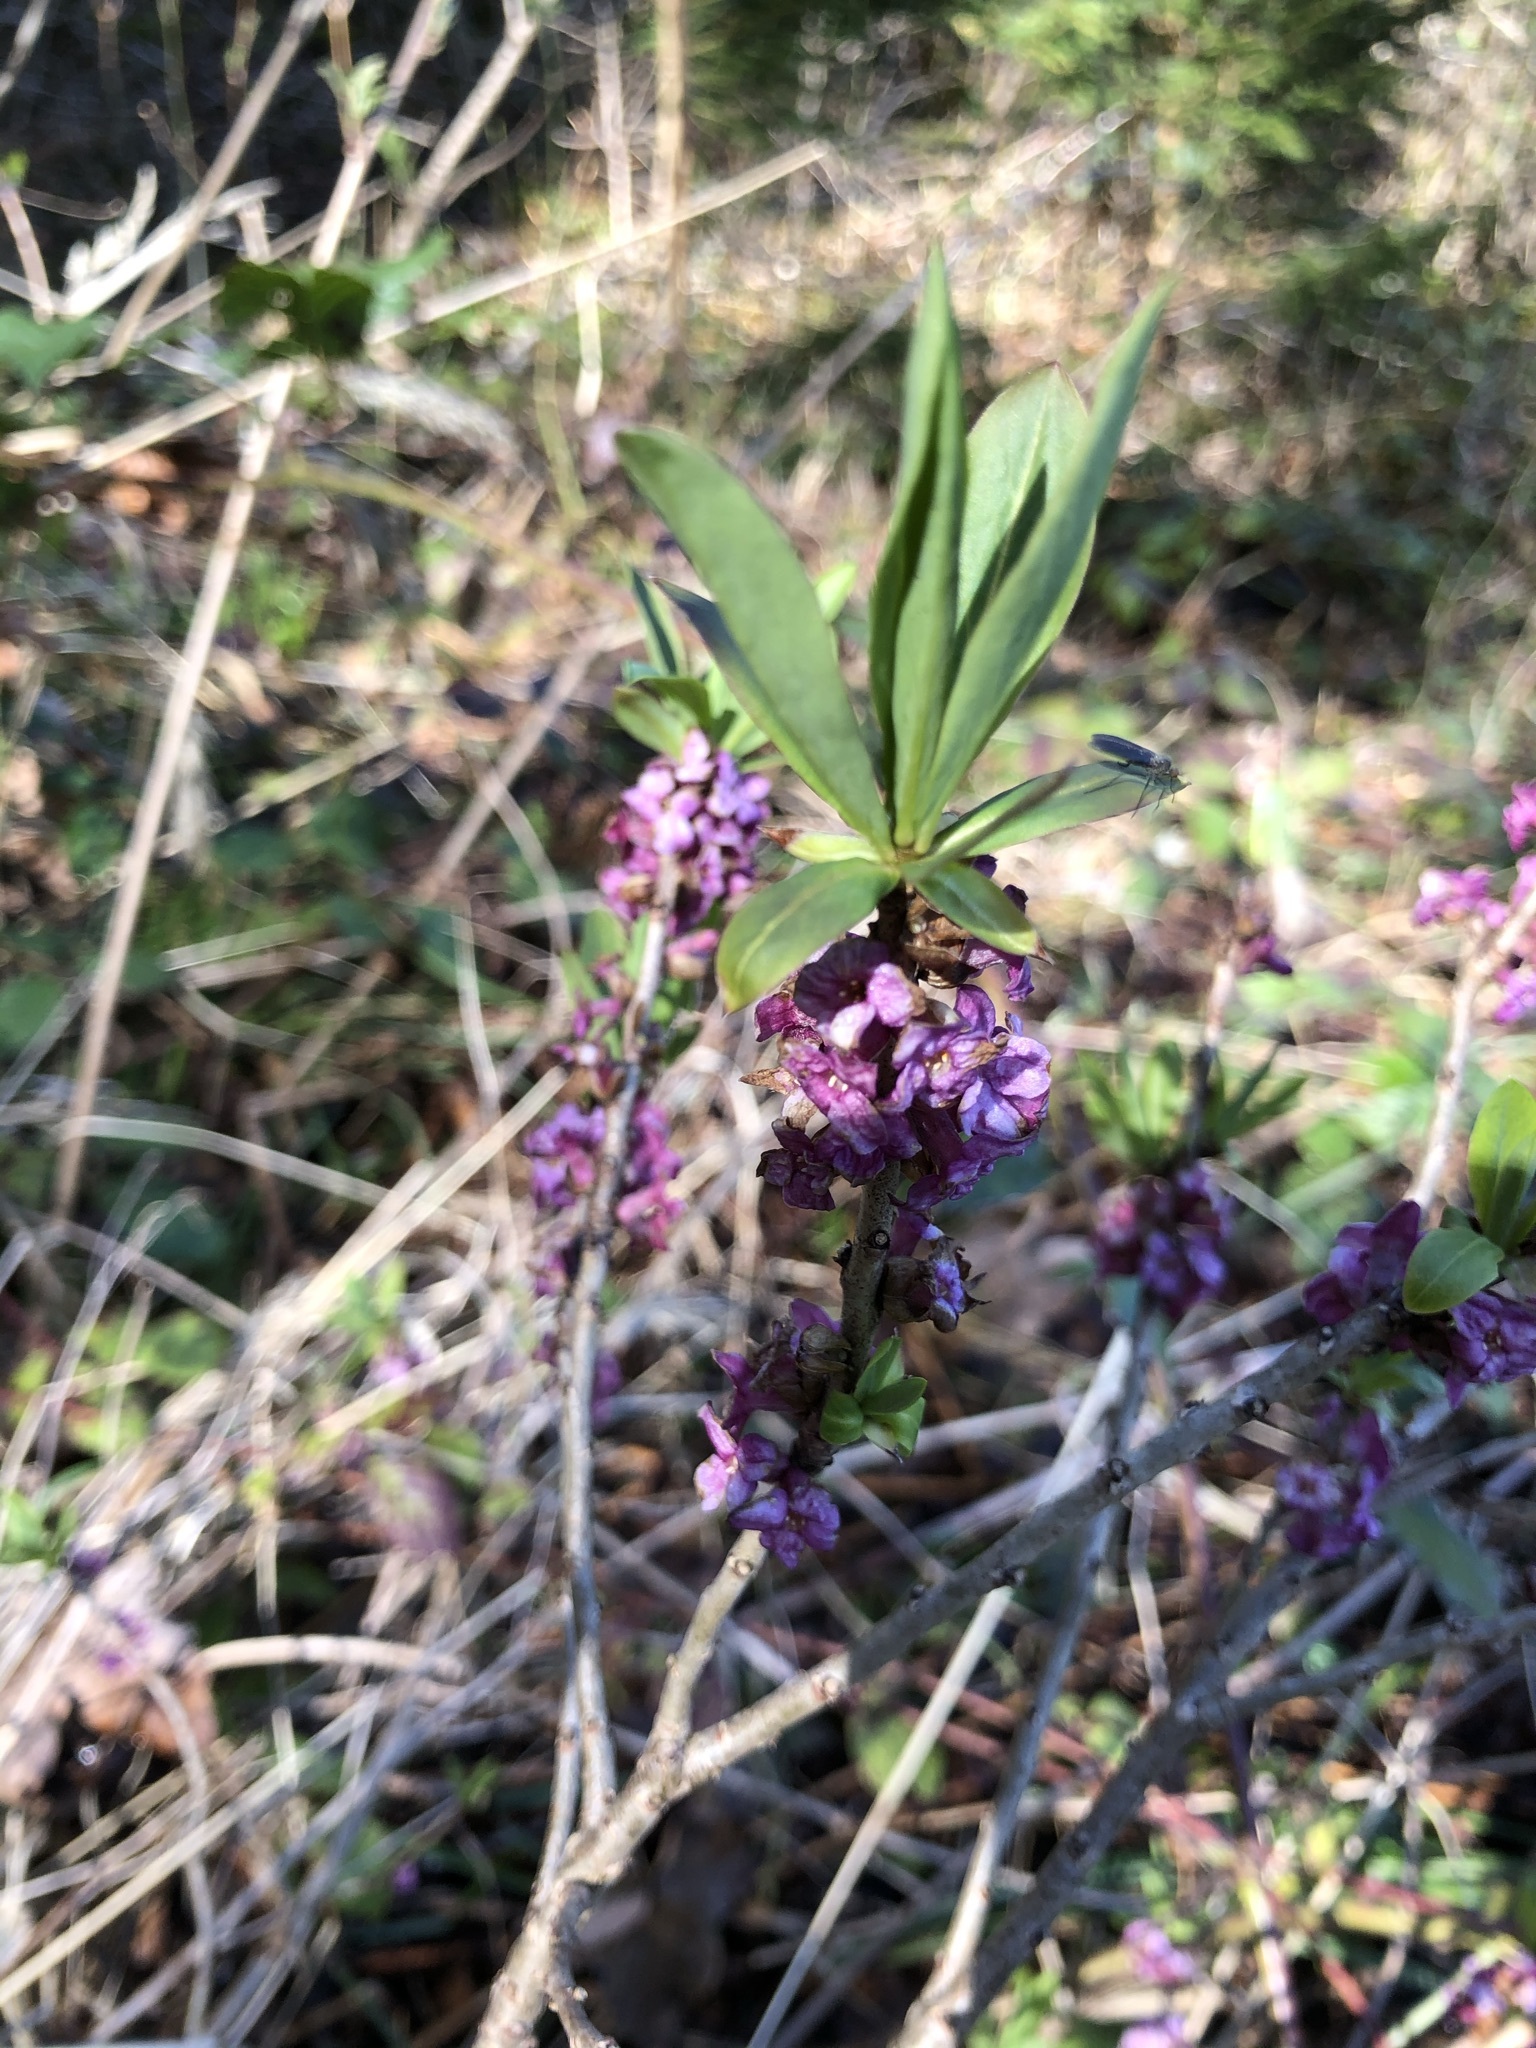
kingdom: Plantae
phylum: Tracheophyta
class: Magnoliopsida
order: Malvales
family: Thymelaeaceae
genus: Daphne
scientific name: Daphne mezereum
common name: Mezereon
